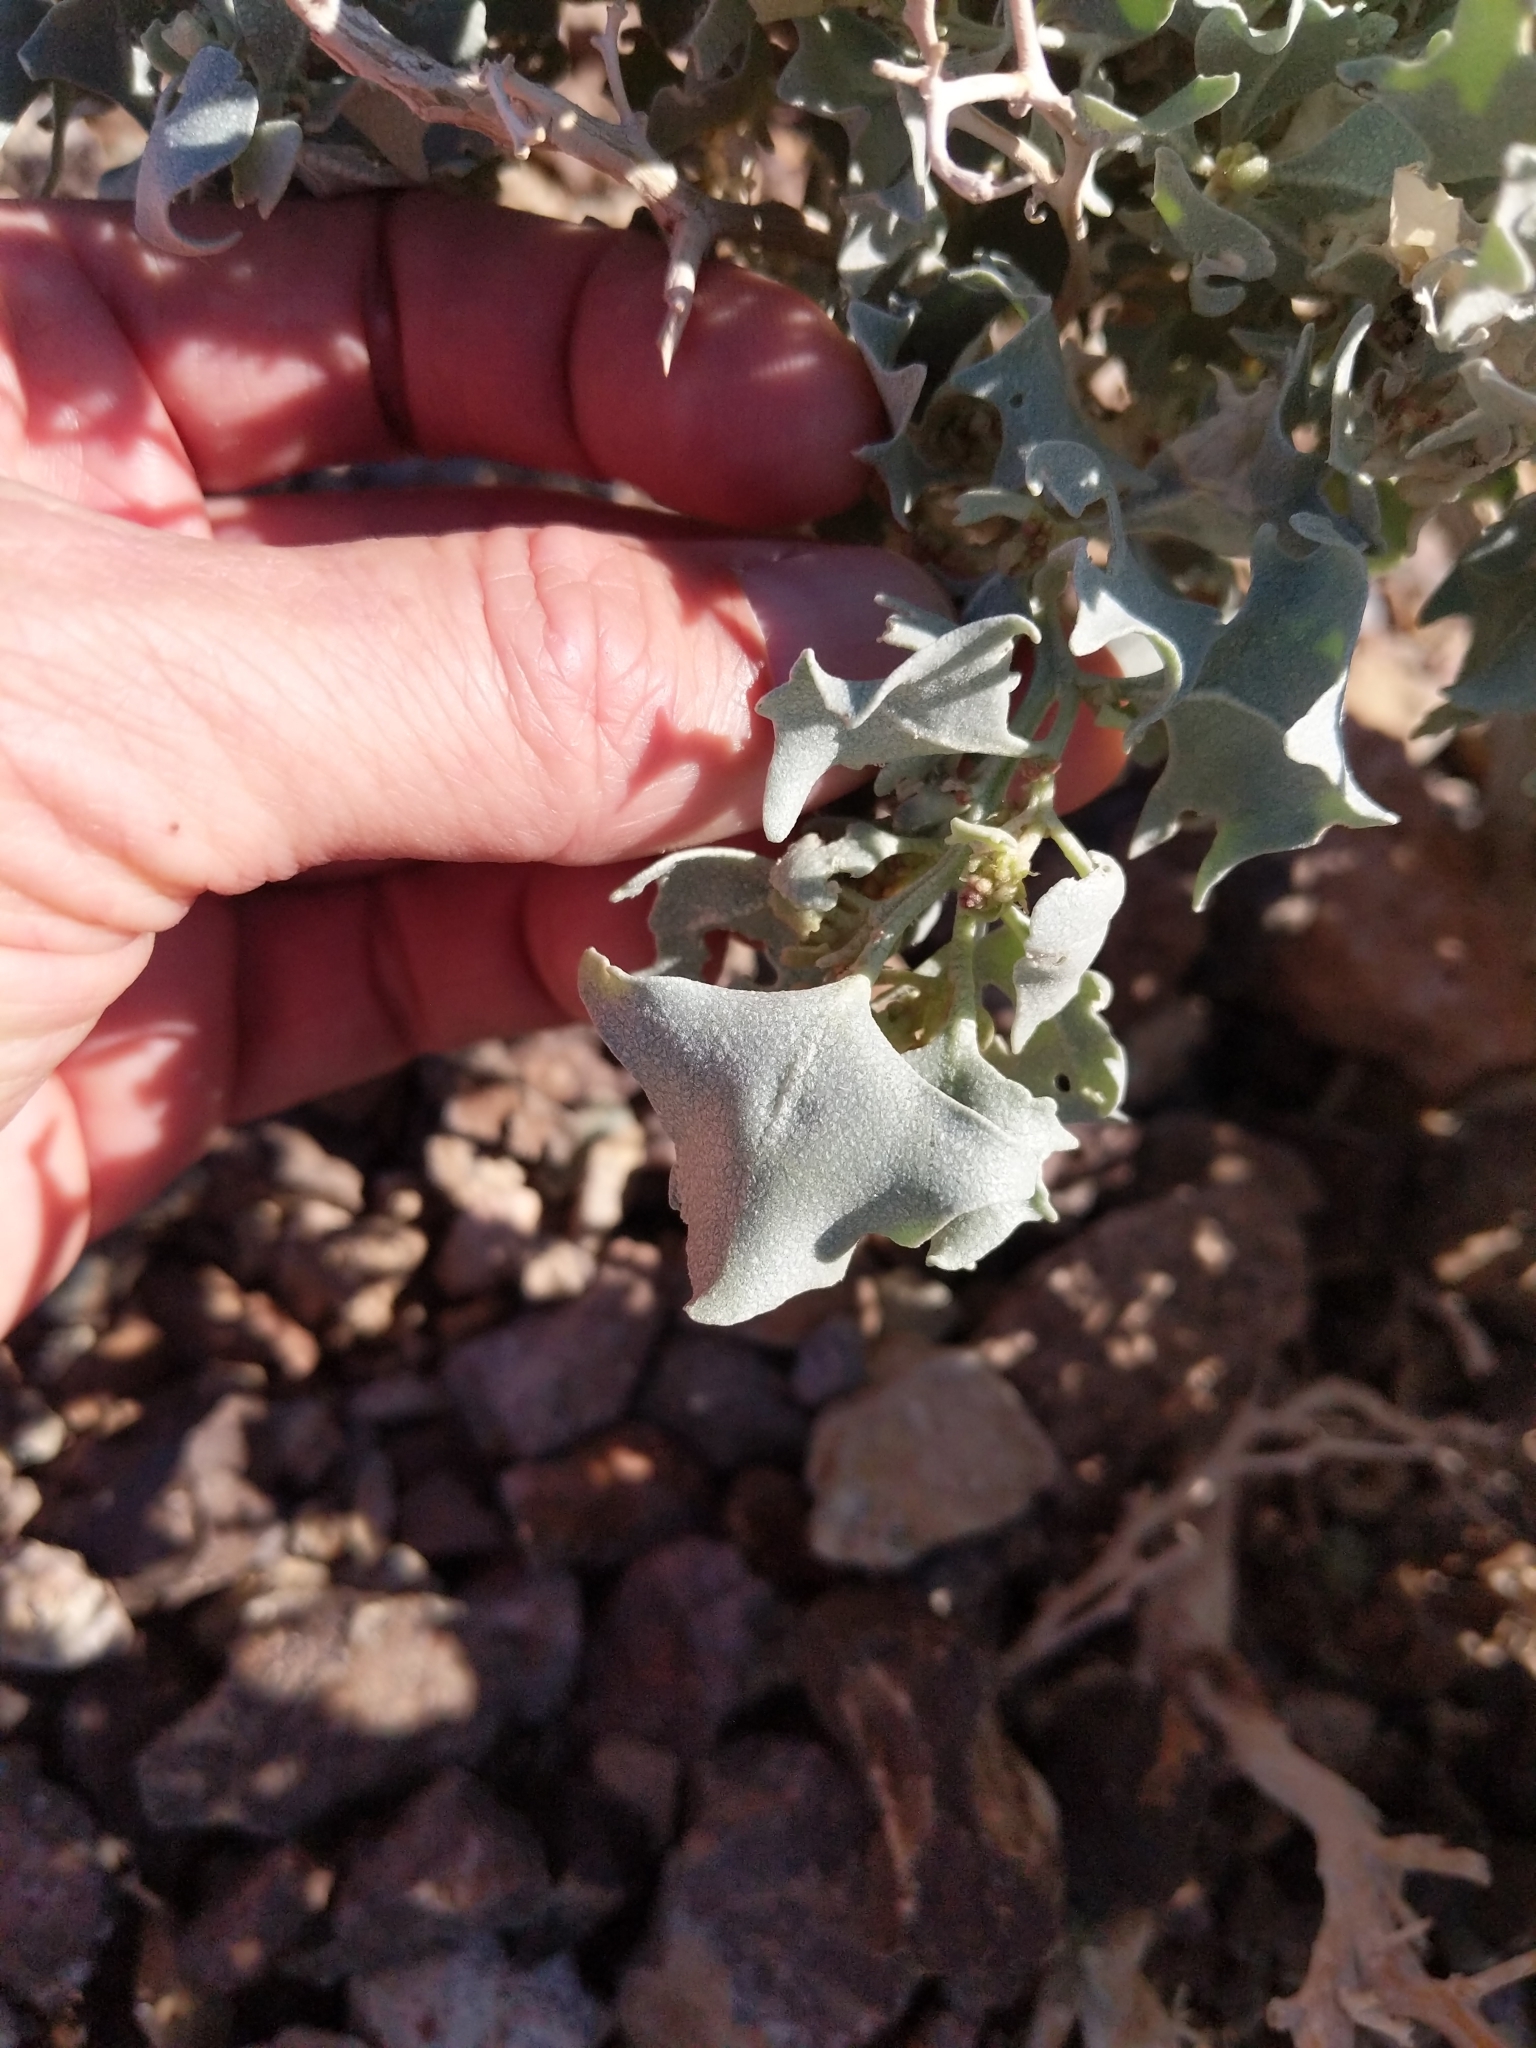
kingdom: Plantae
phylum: Tracheophyta
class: Magnoliopsida
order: Caryophyllales
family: Amaranthaceae
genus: Atriplex
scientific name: Atriplex hymenelytra
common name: Desert-holly
